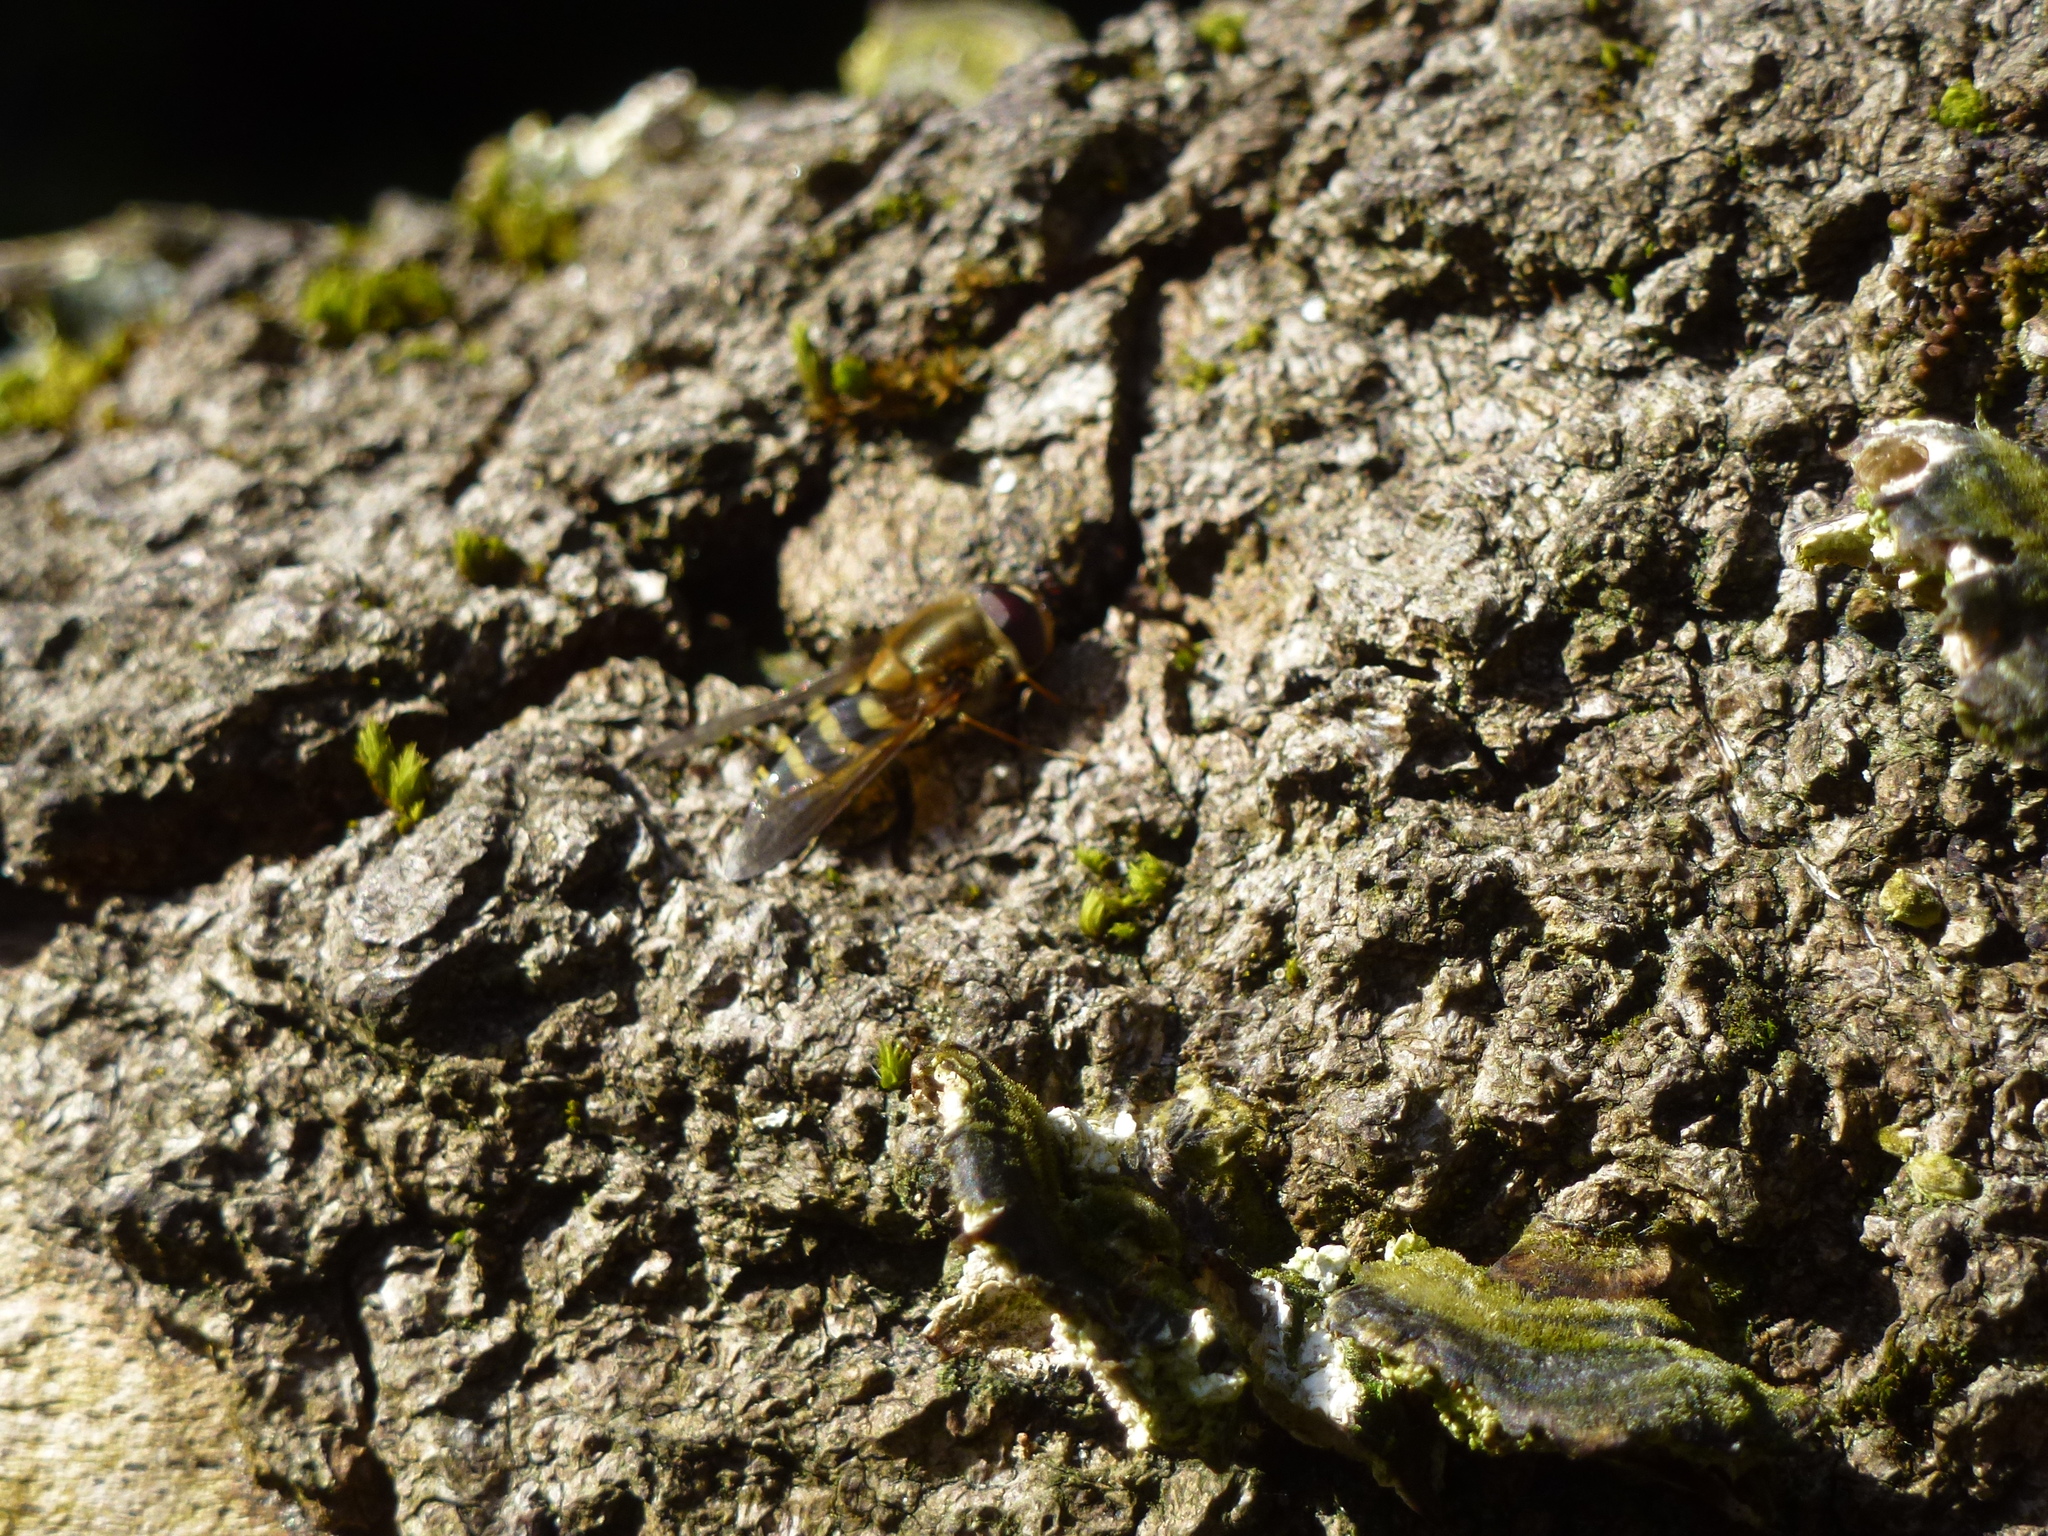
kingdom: Animalia
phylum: Arthropoda
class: Insecta
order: Diptera
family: Syrphidae
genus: Syrphus
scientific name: Syrphus
